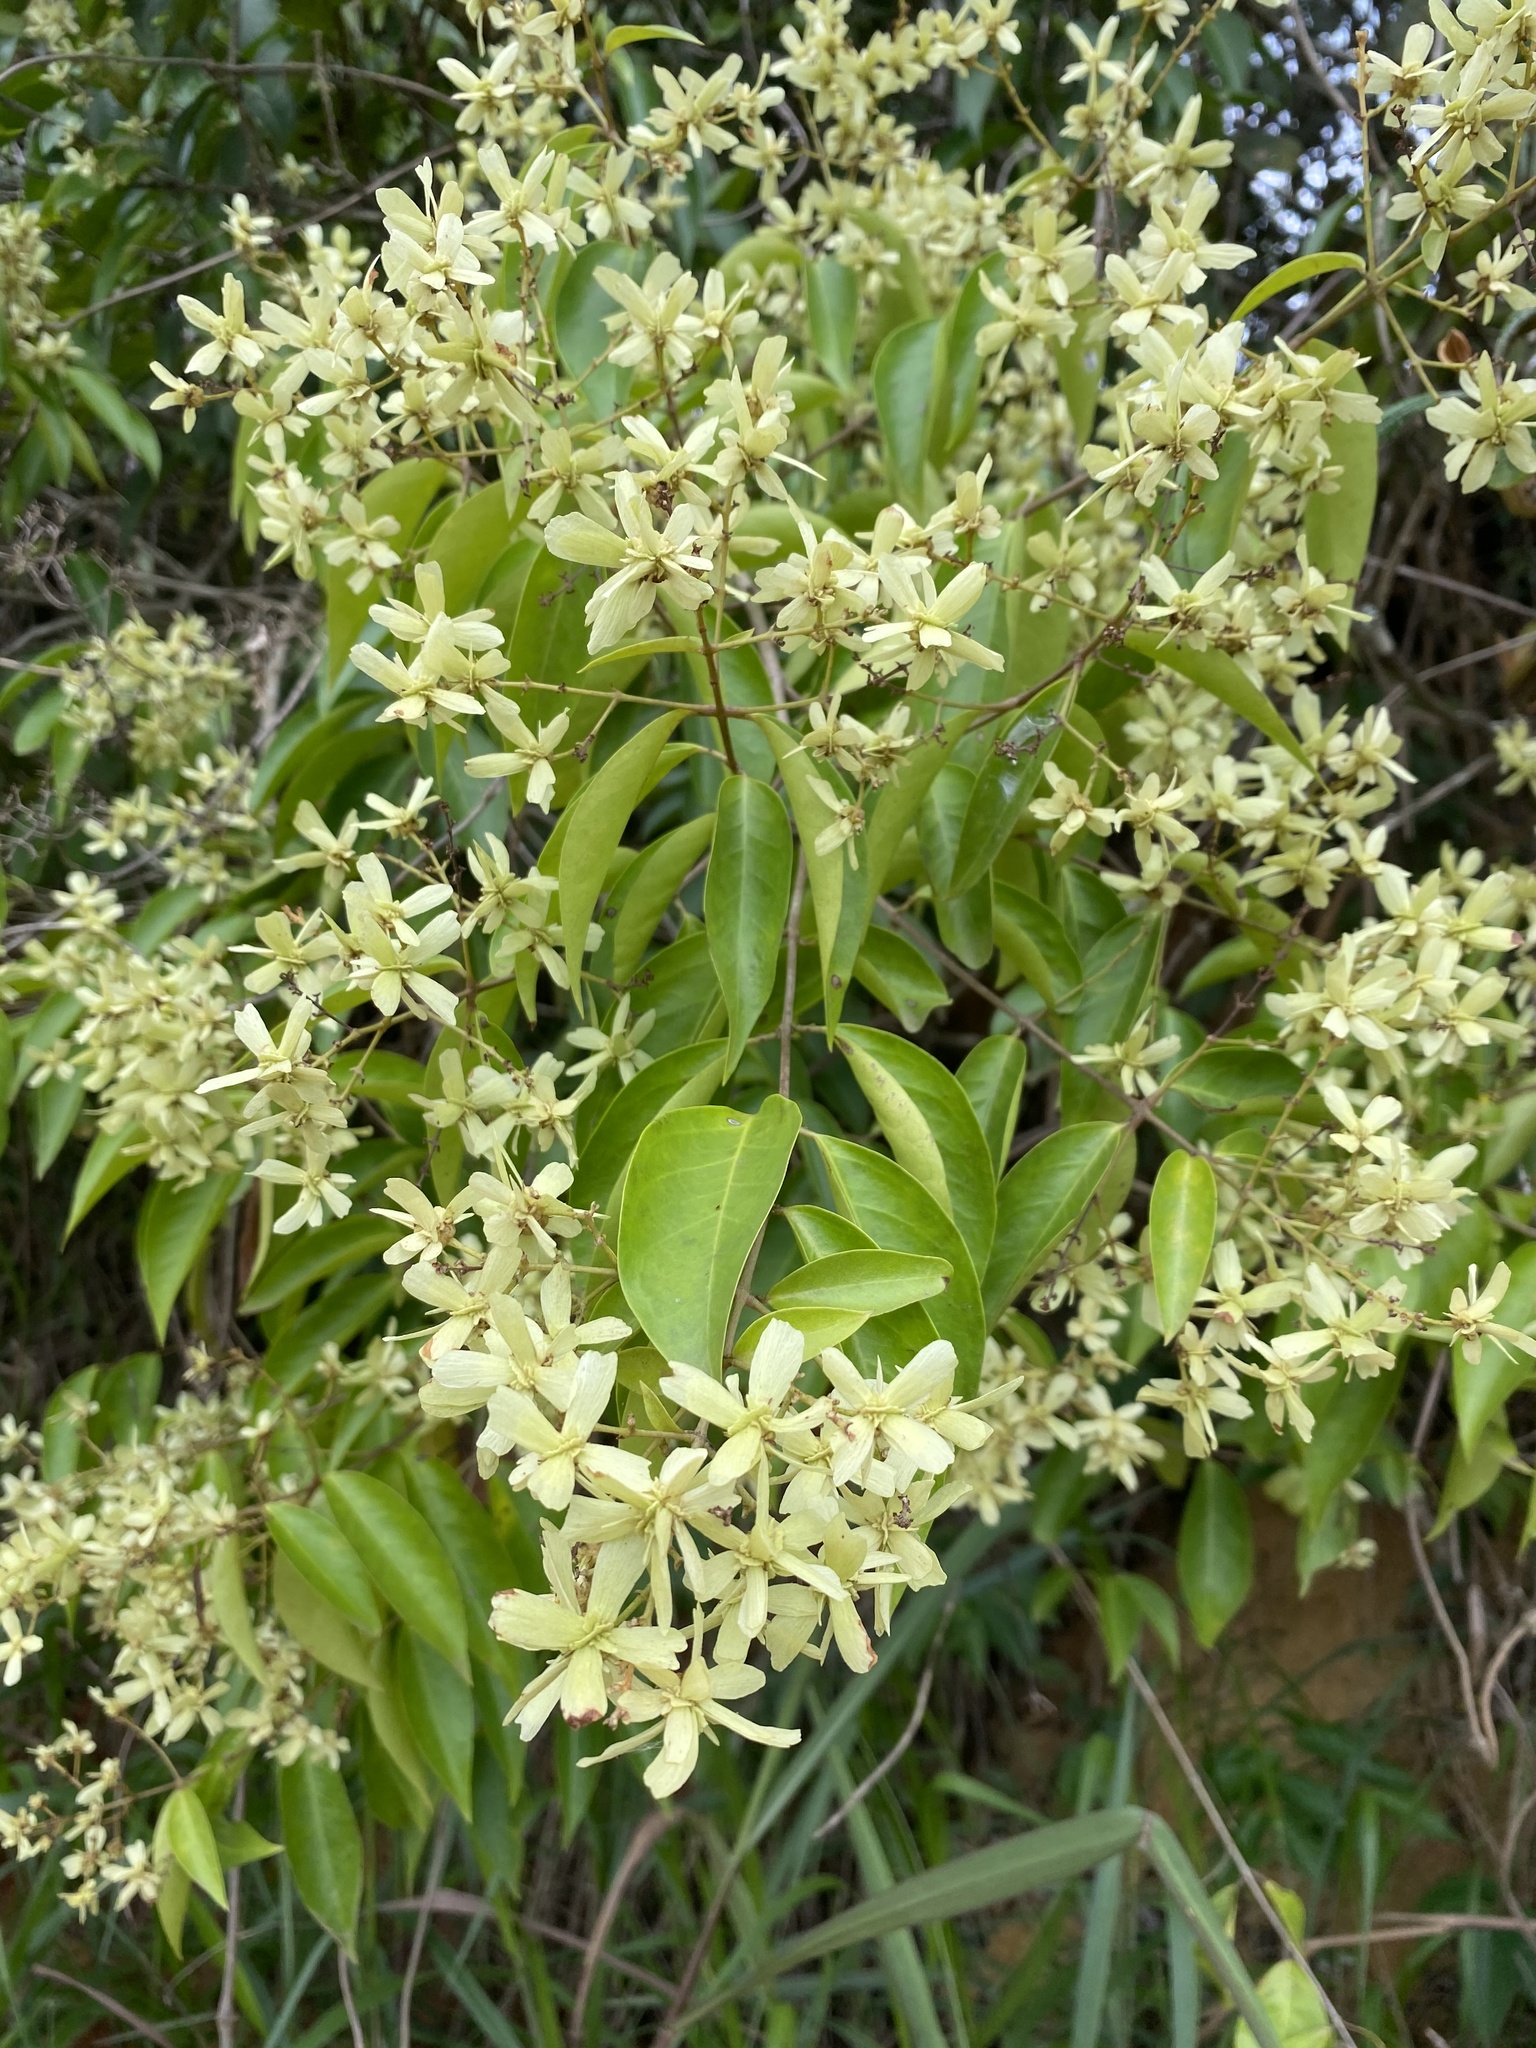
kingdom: Plantae
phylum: Tracheophyta
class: Magnoliopsida
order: Malpighiales
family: Malpighiaceae
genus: Niedenzuella
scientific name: Niedenzuella acutifolia
